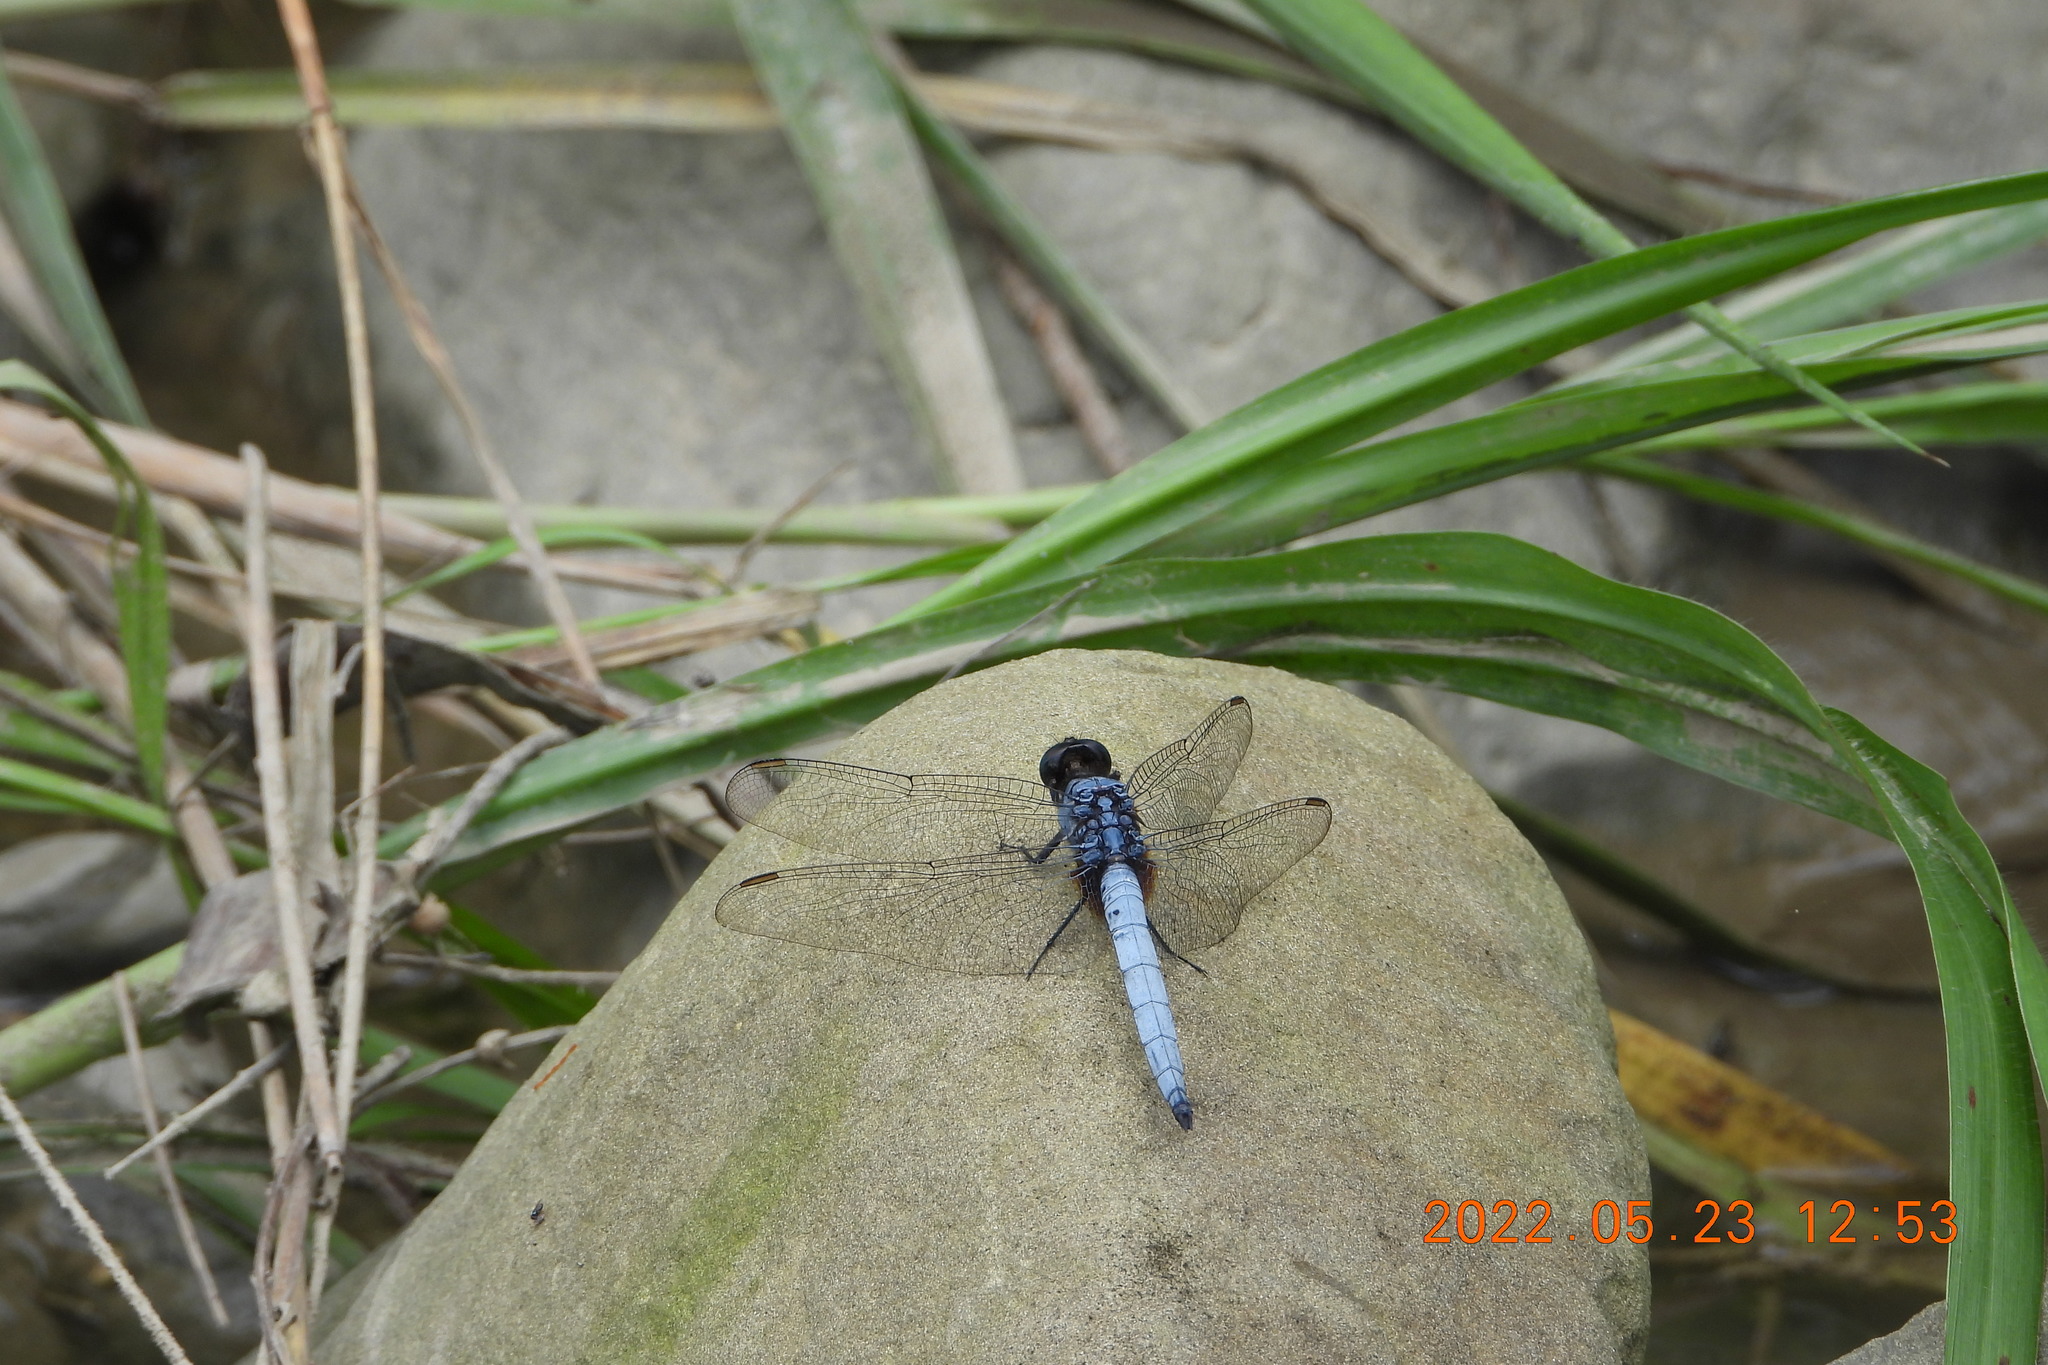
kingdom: Animalia
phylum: Arthropoda
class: Insecta
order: Odonata
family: Libellulidae
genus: Orthetrum
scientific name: Orthetrum glaucum
